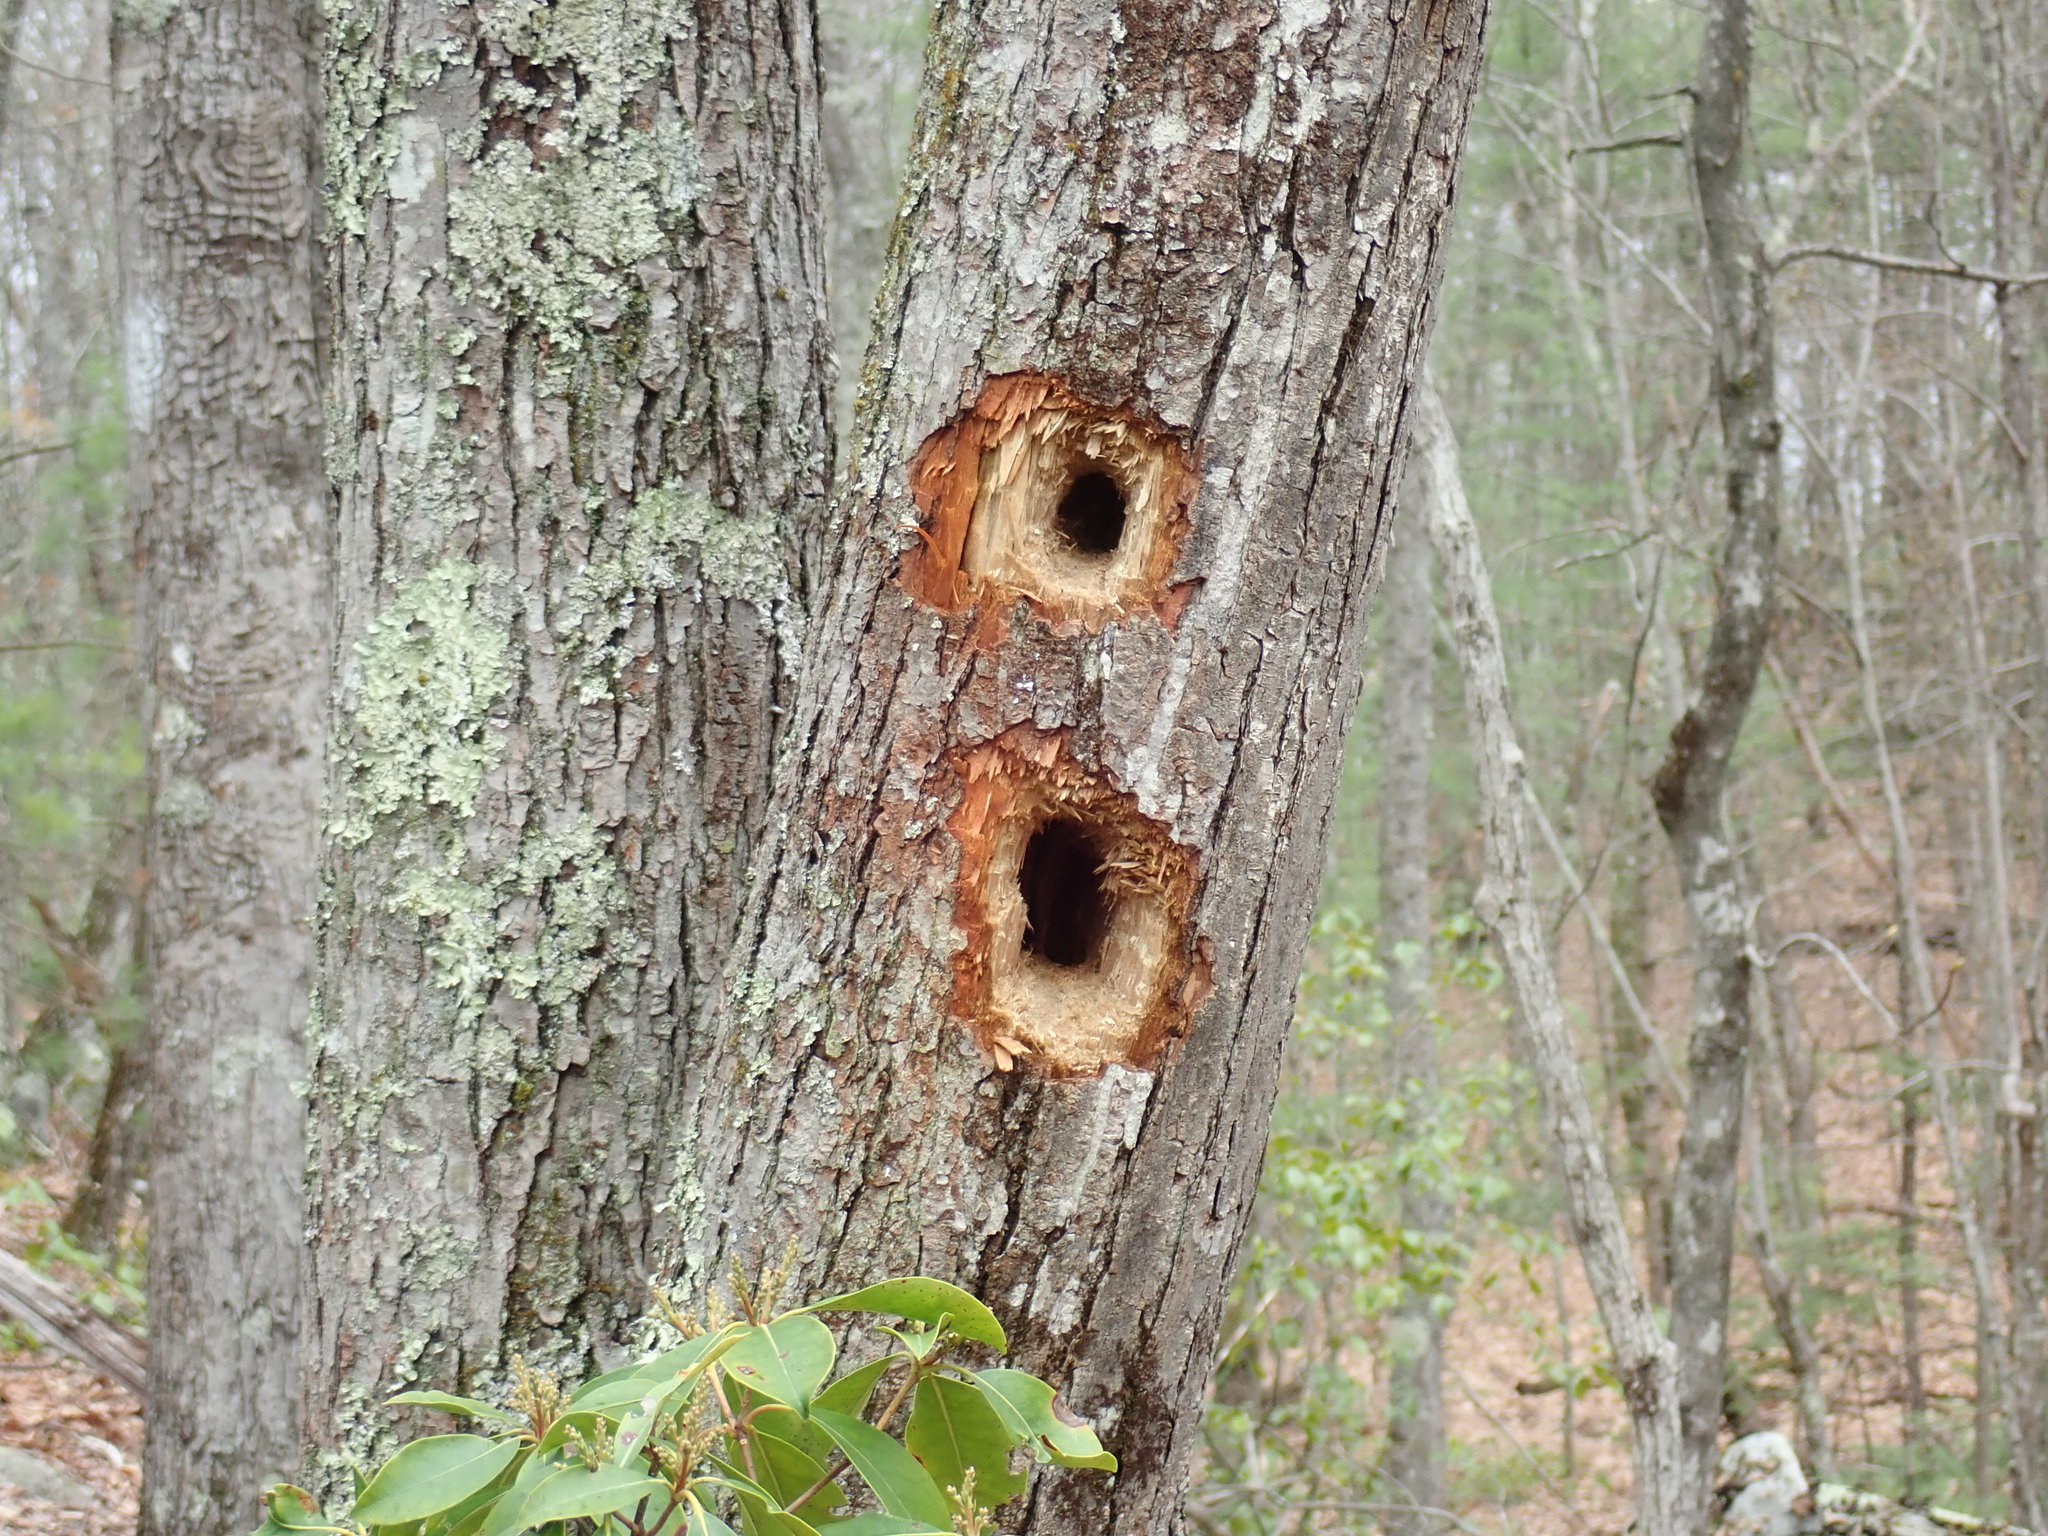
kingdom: Animalia
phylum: Chordata
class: Aves
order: Piciformes
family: Picidae
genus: Dryocopus
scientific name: Dryocopus pileatus
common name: Pileated woodpecker
